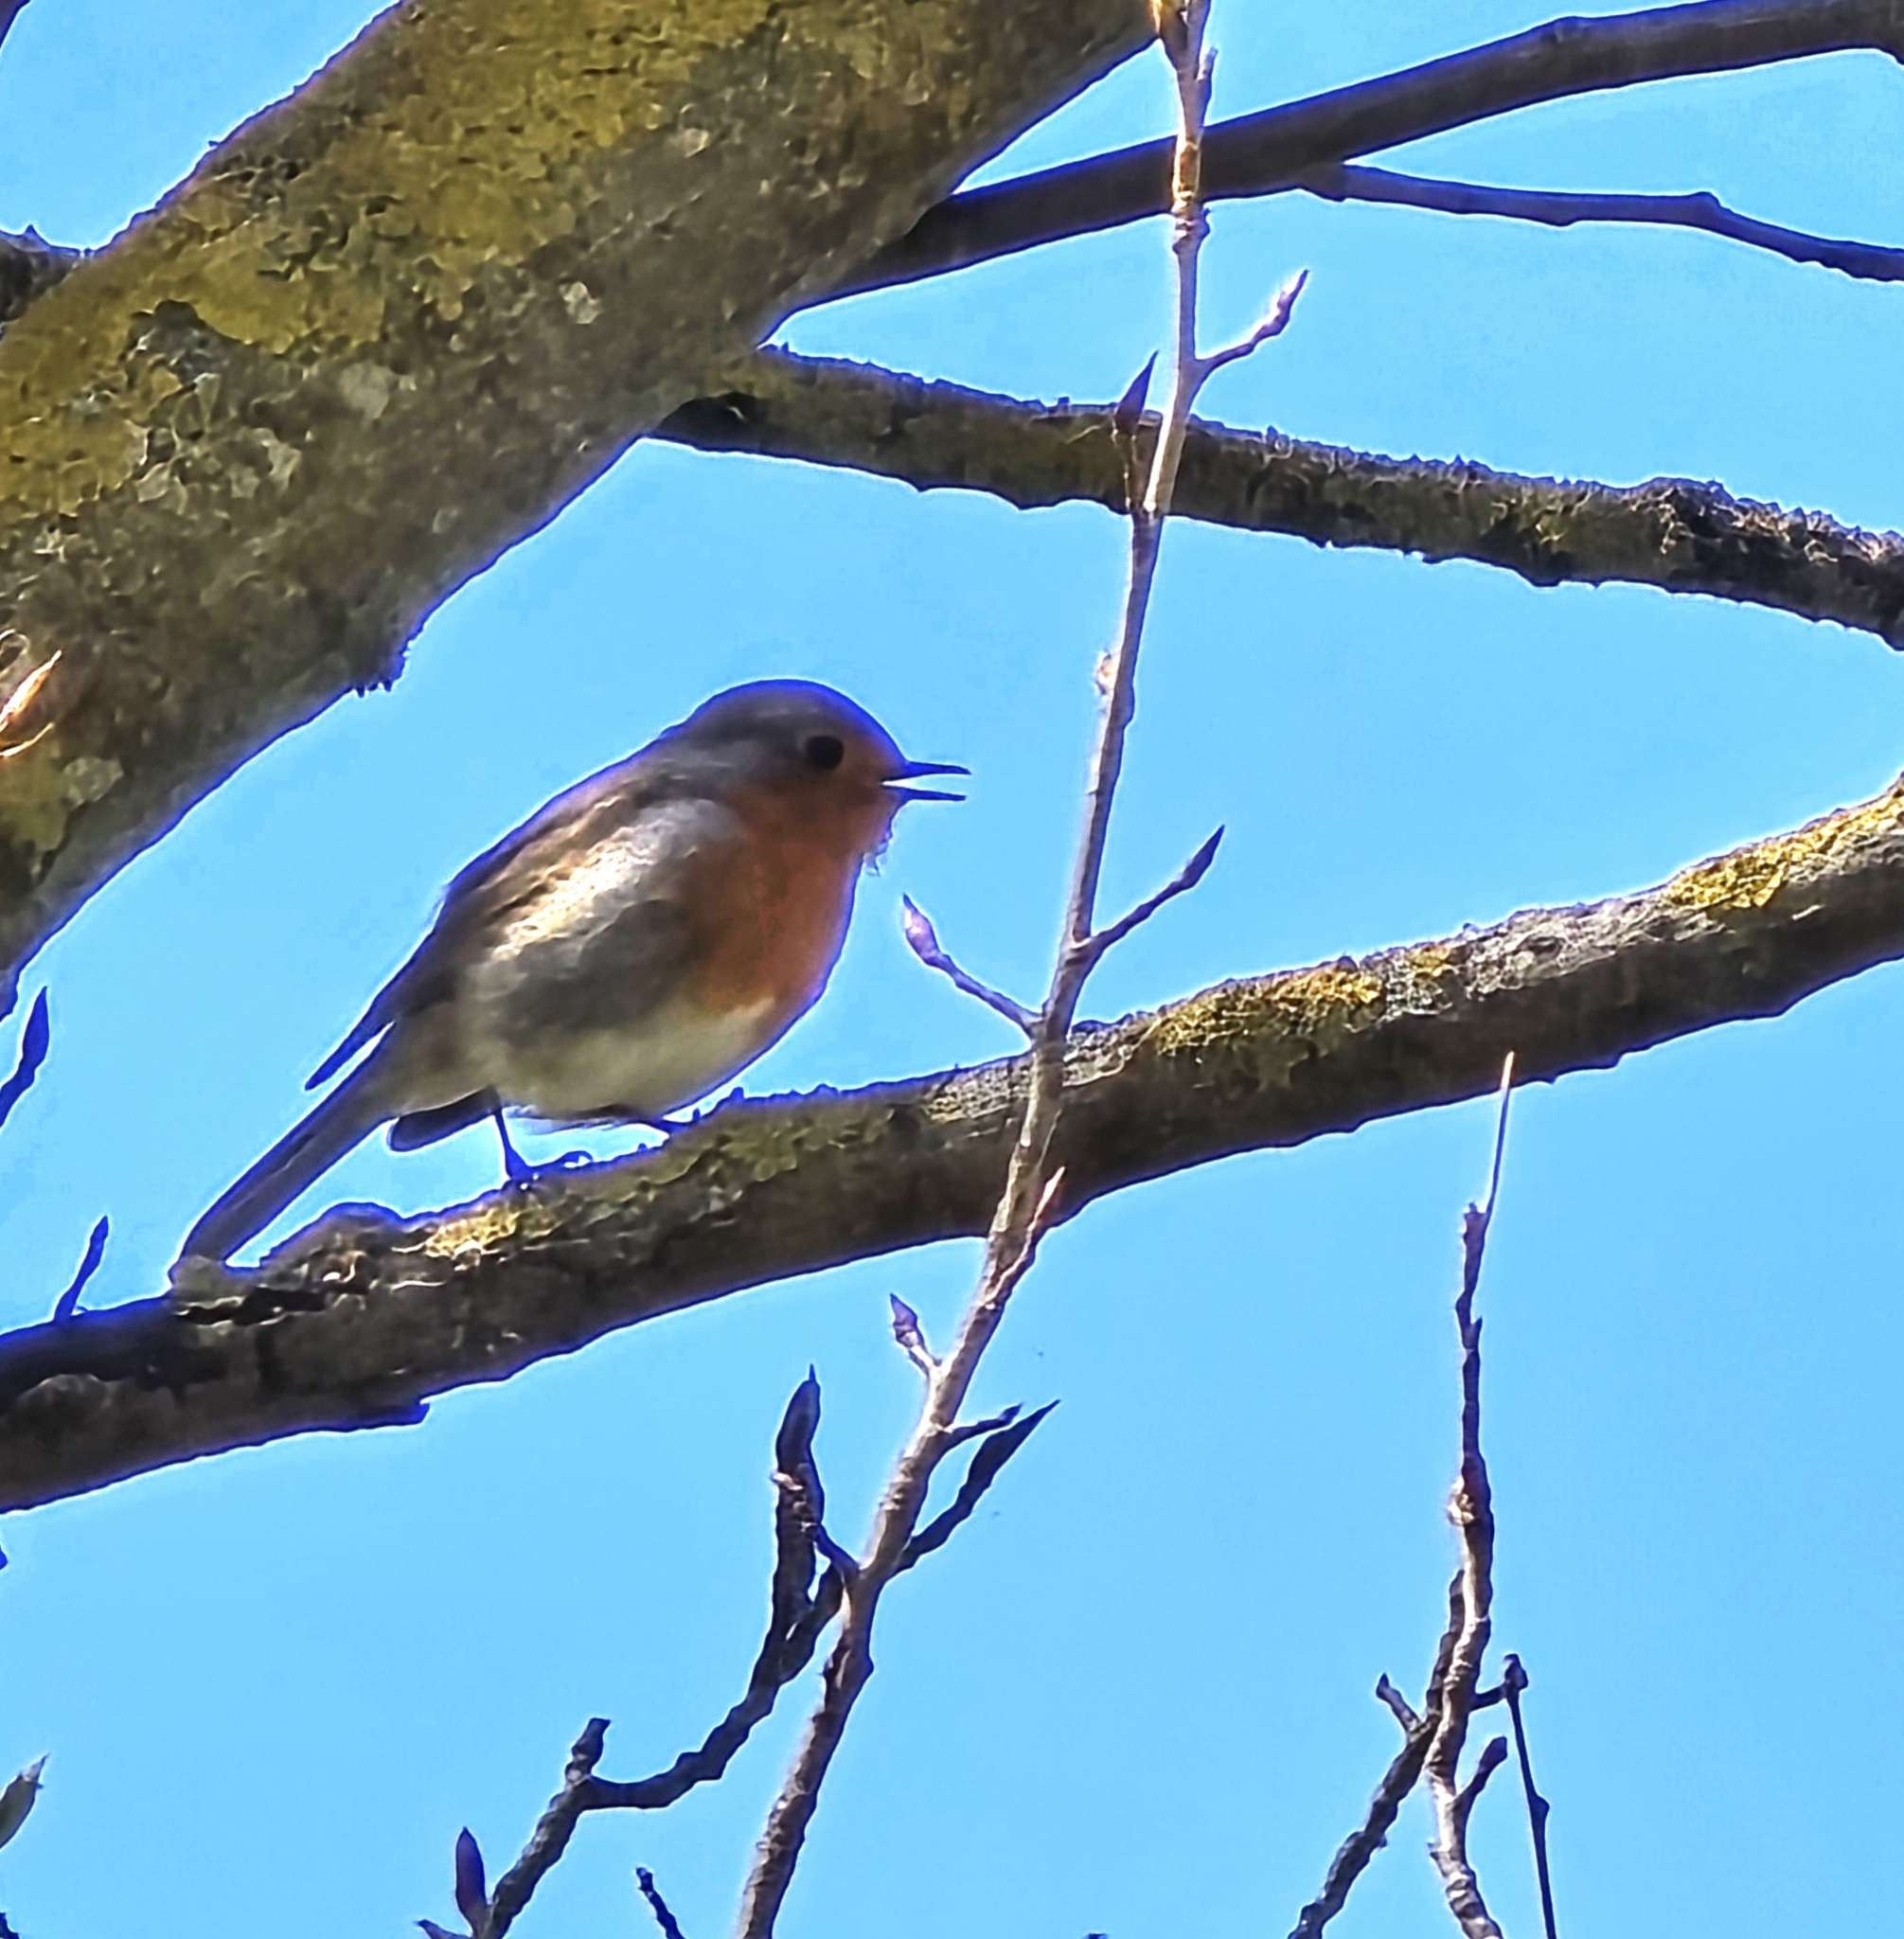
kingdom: Animalia
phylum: Chordata
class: Aves
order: Passeriformes
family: Muscicapidae
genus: Erithacus
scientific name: Erithacus rubecula
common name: European robin
